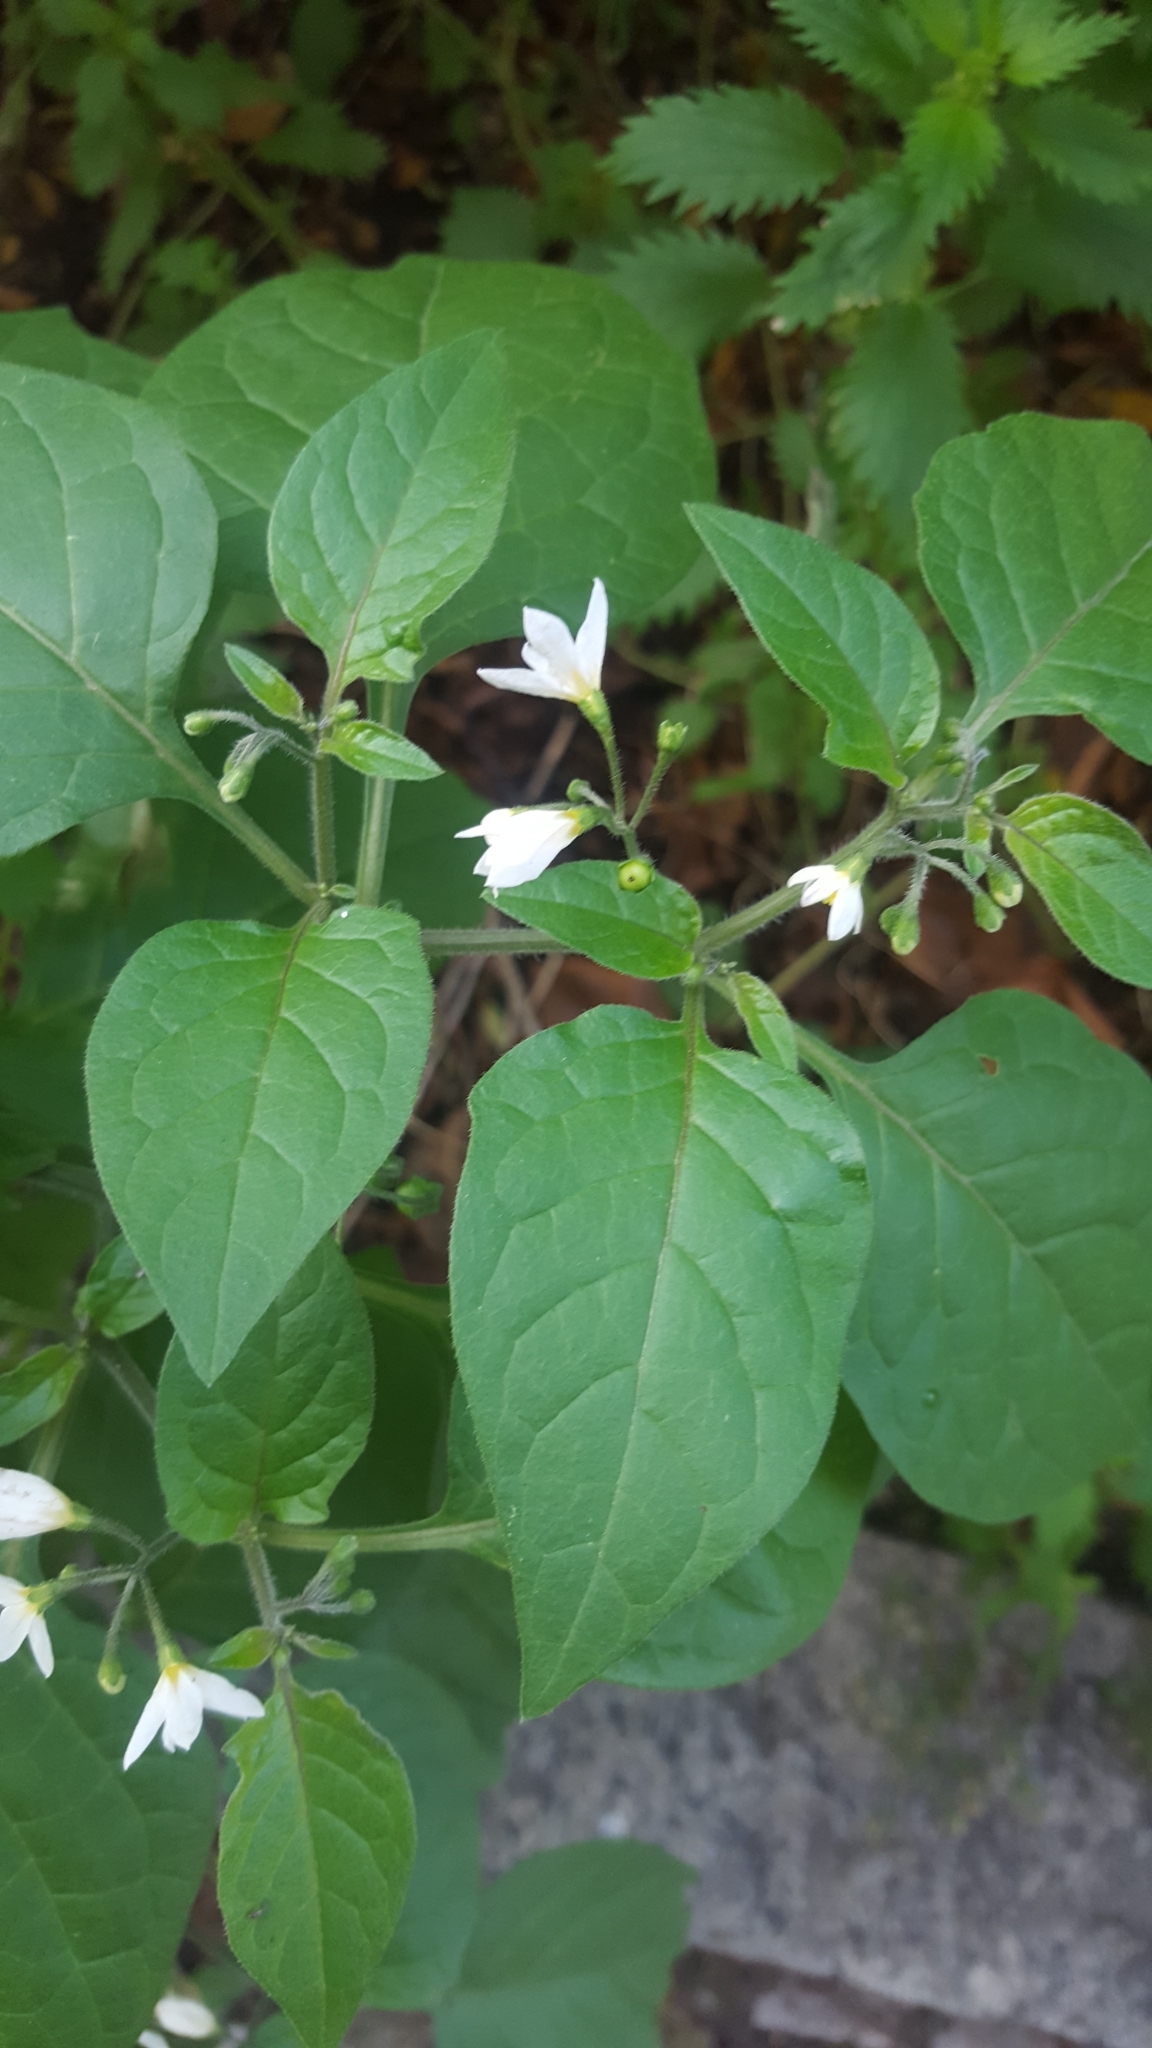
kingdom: Plantae
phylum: Tracheophyta
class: Magnoliopsida
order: Solanales
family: Solanaceae
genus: Solanum
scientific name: Solanum nigrum
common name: Black nightshade
